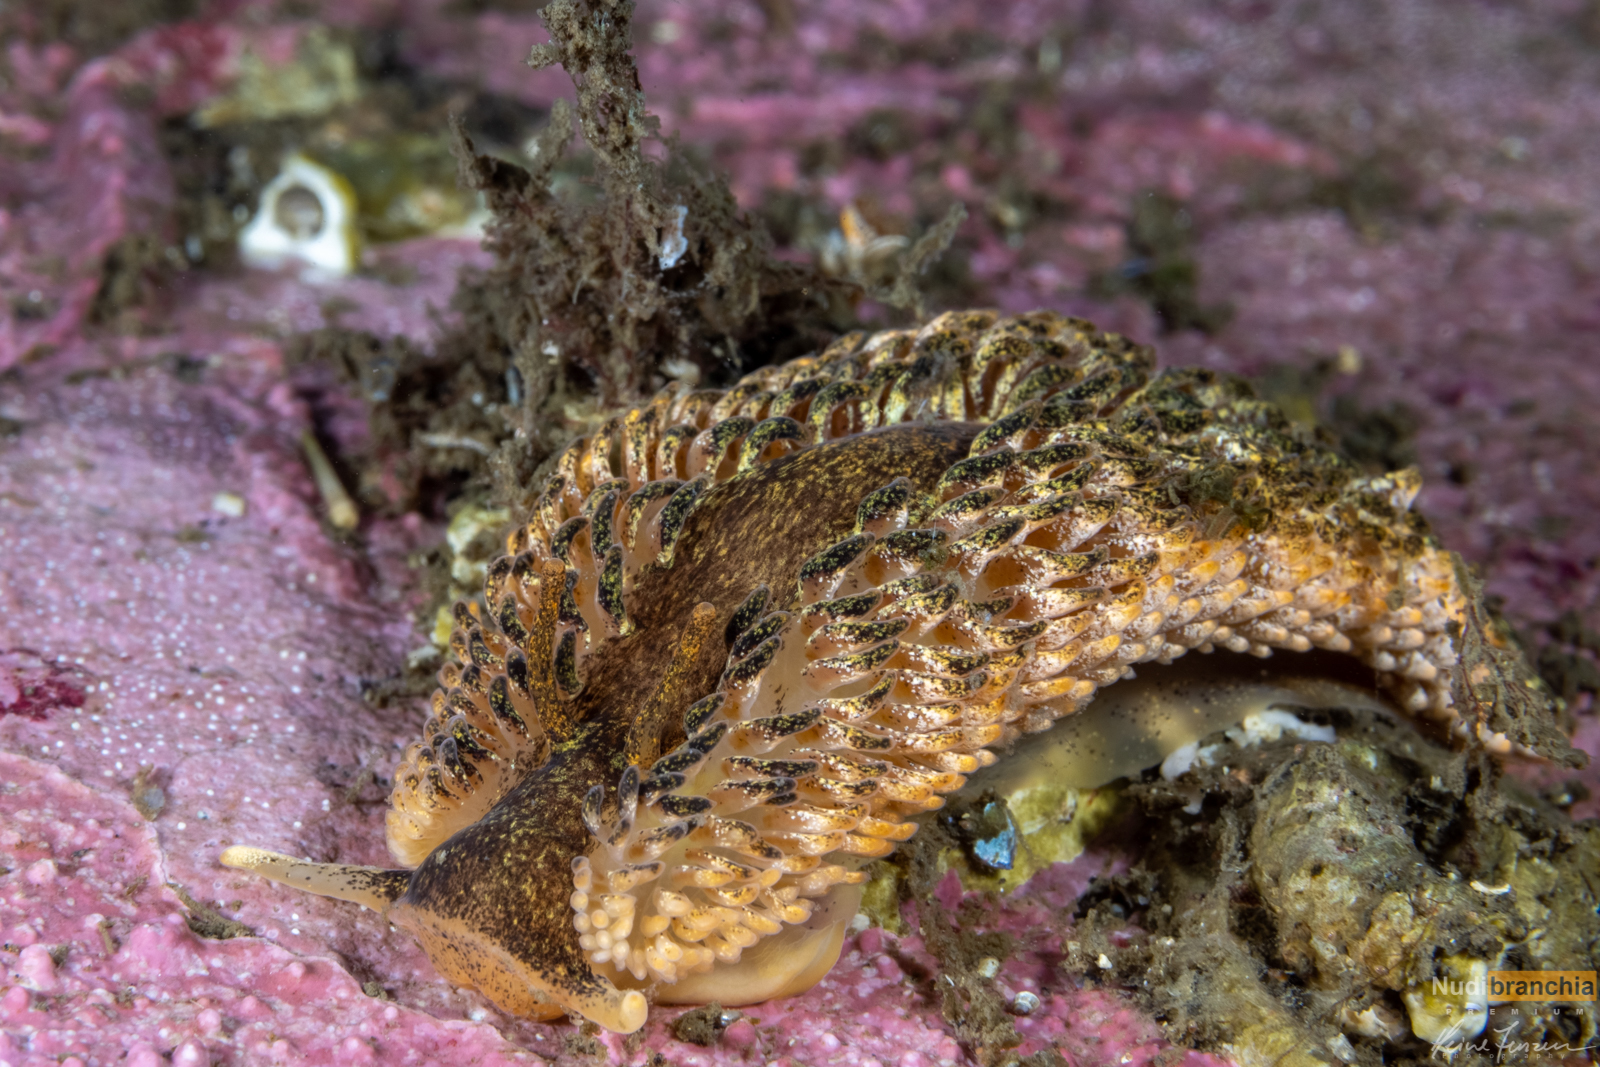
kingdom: Animalia
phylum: Mollusca
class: Gastropoda
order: Nudibranchia
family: Aeolidiidae
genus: Aeolidia
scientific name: Aeolidia papillosa
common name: Common grey sea slug
